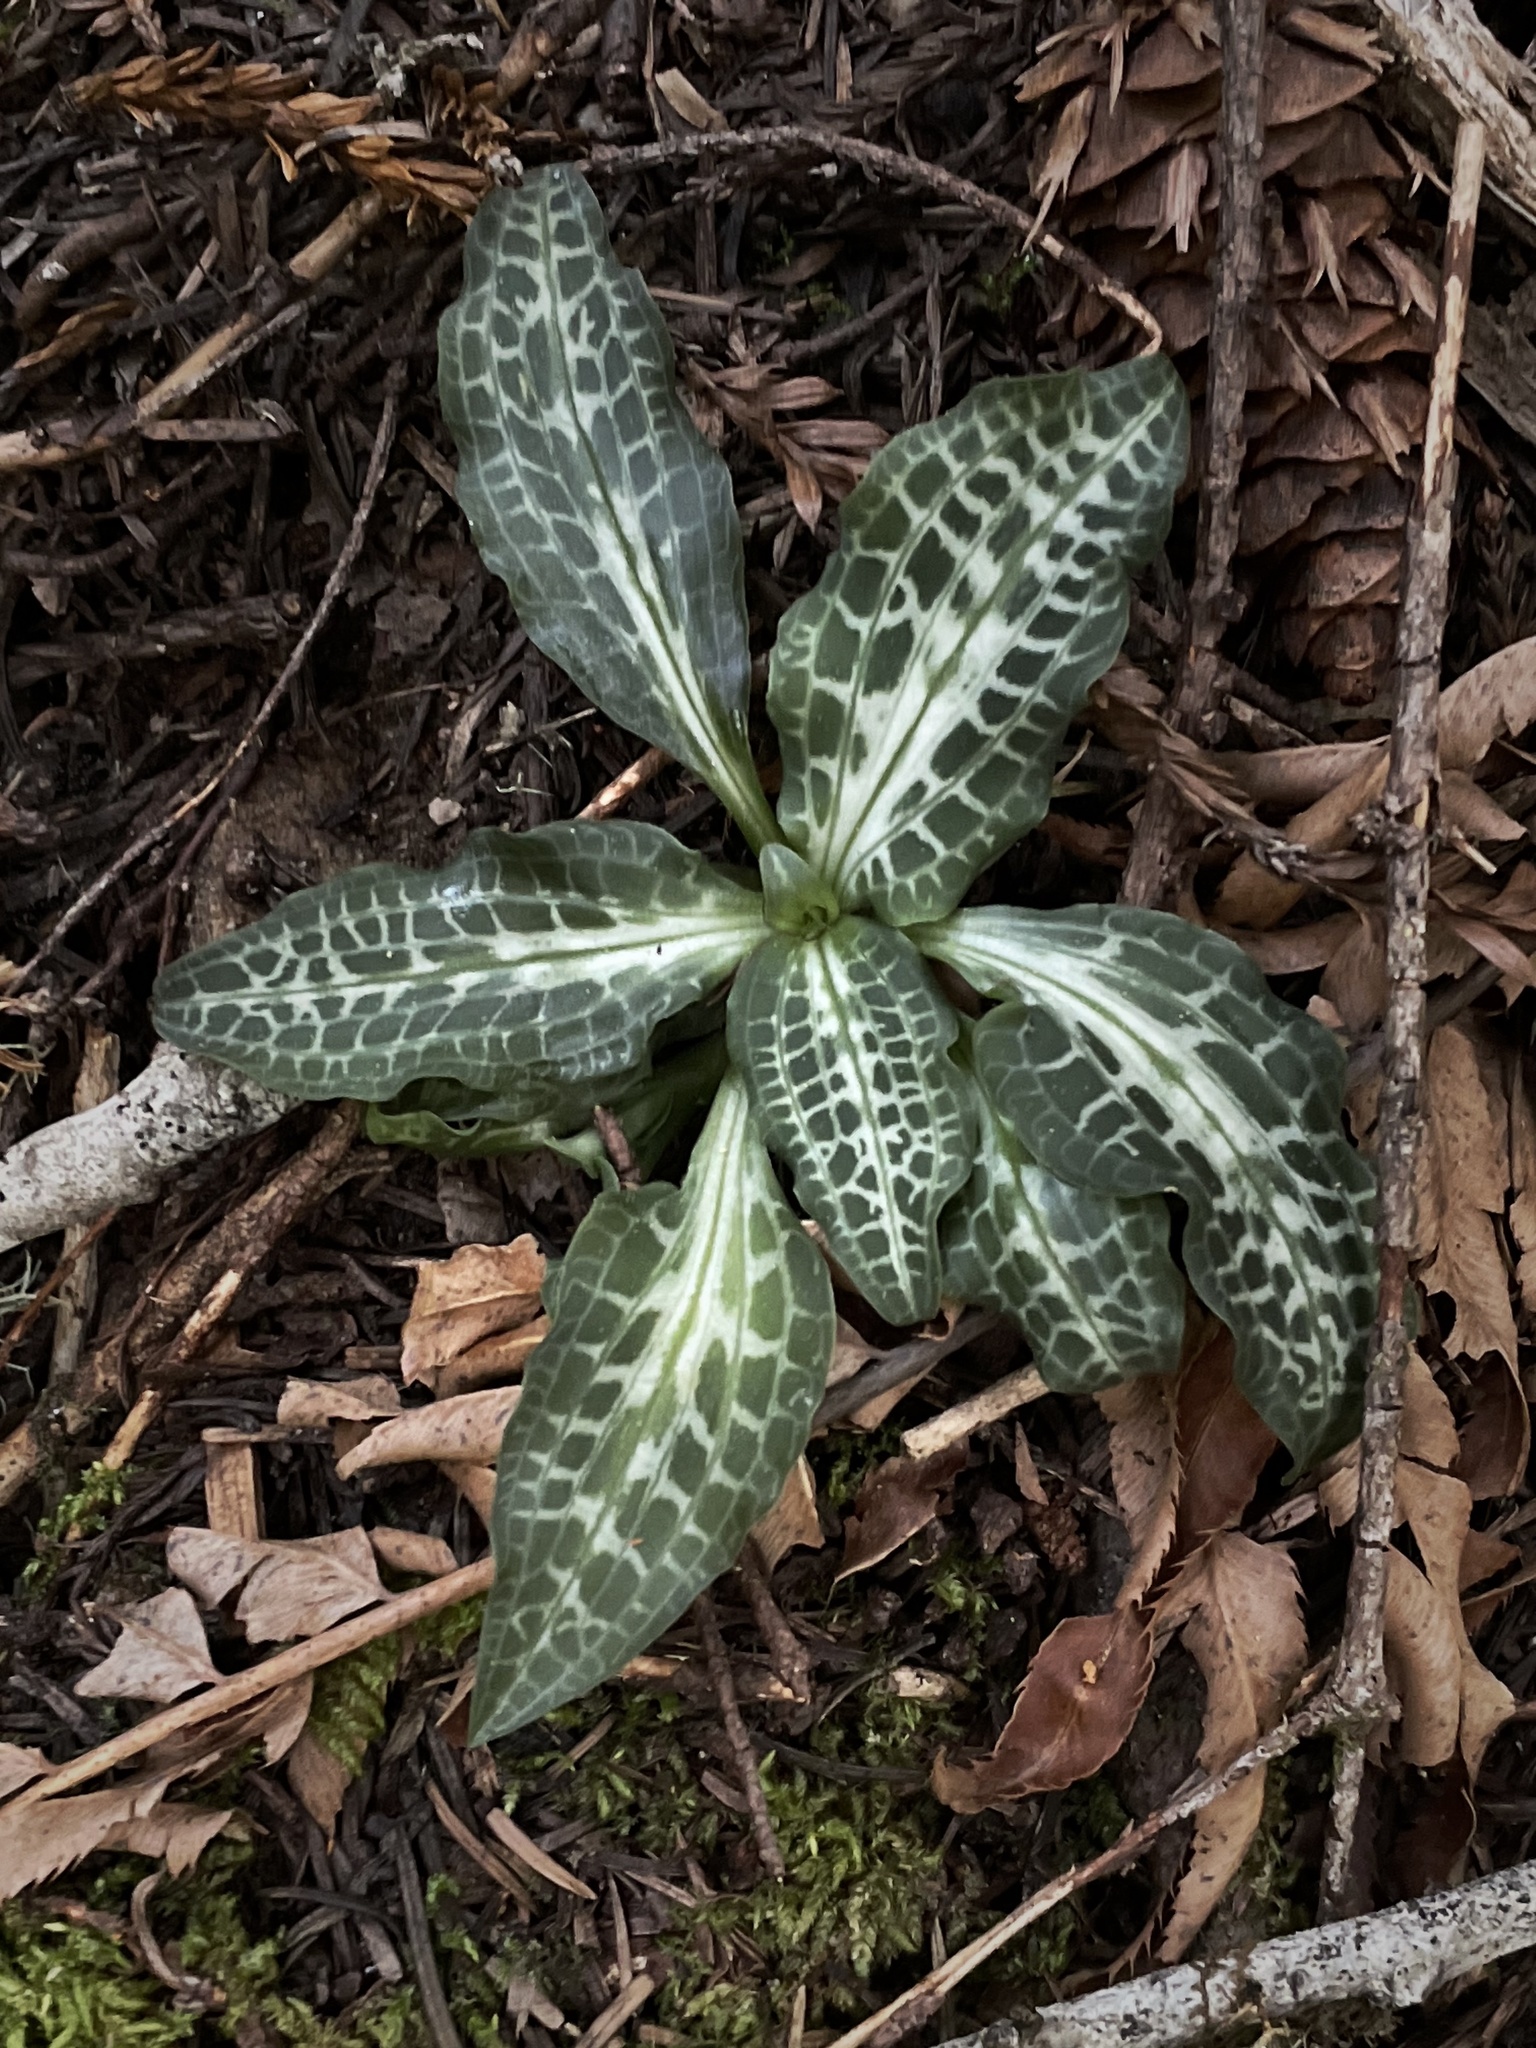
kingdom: Plantae
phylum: Tracheophyta
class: Liliopsida
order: Asparagales
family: Orchidaceae
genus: Goodyera
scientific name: Goodyera oblongifolia
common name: Giant rattlesnake-plantain
